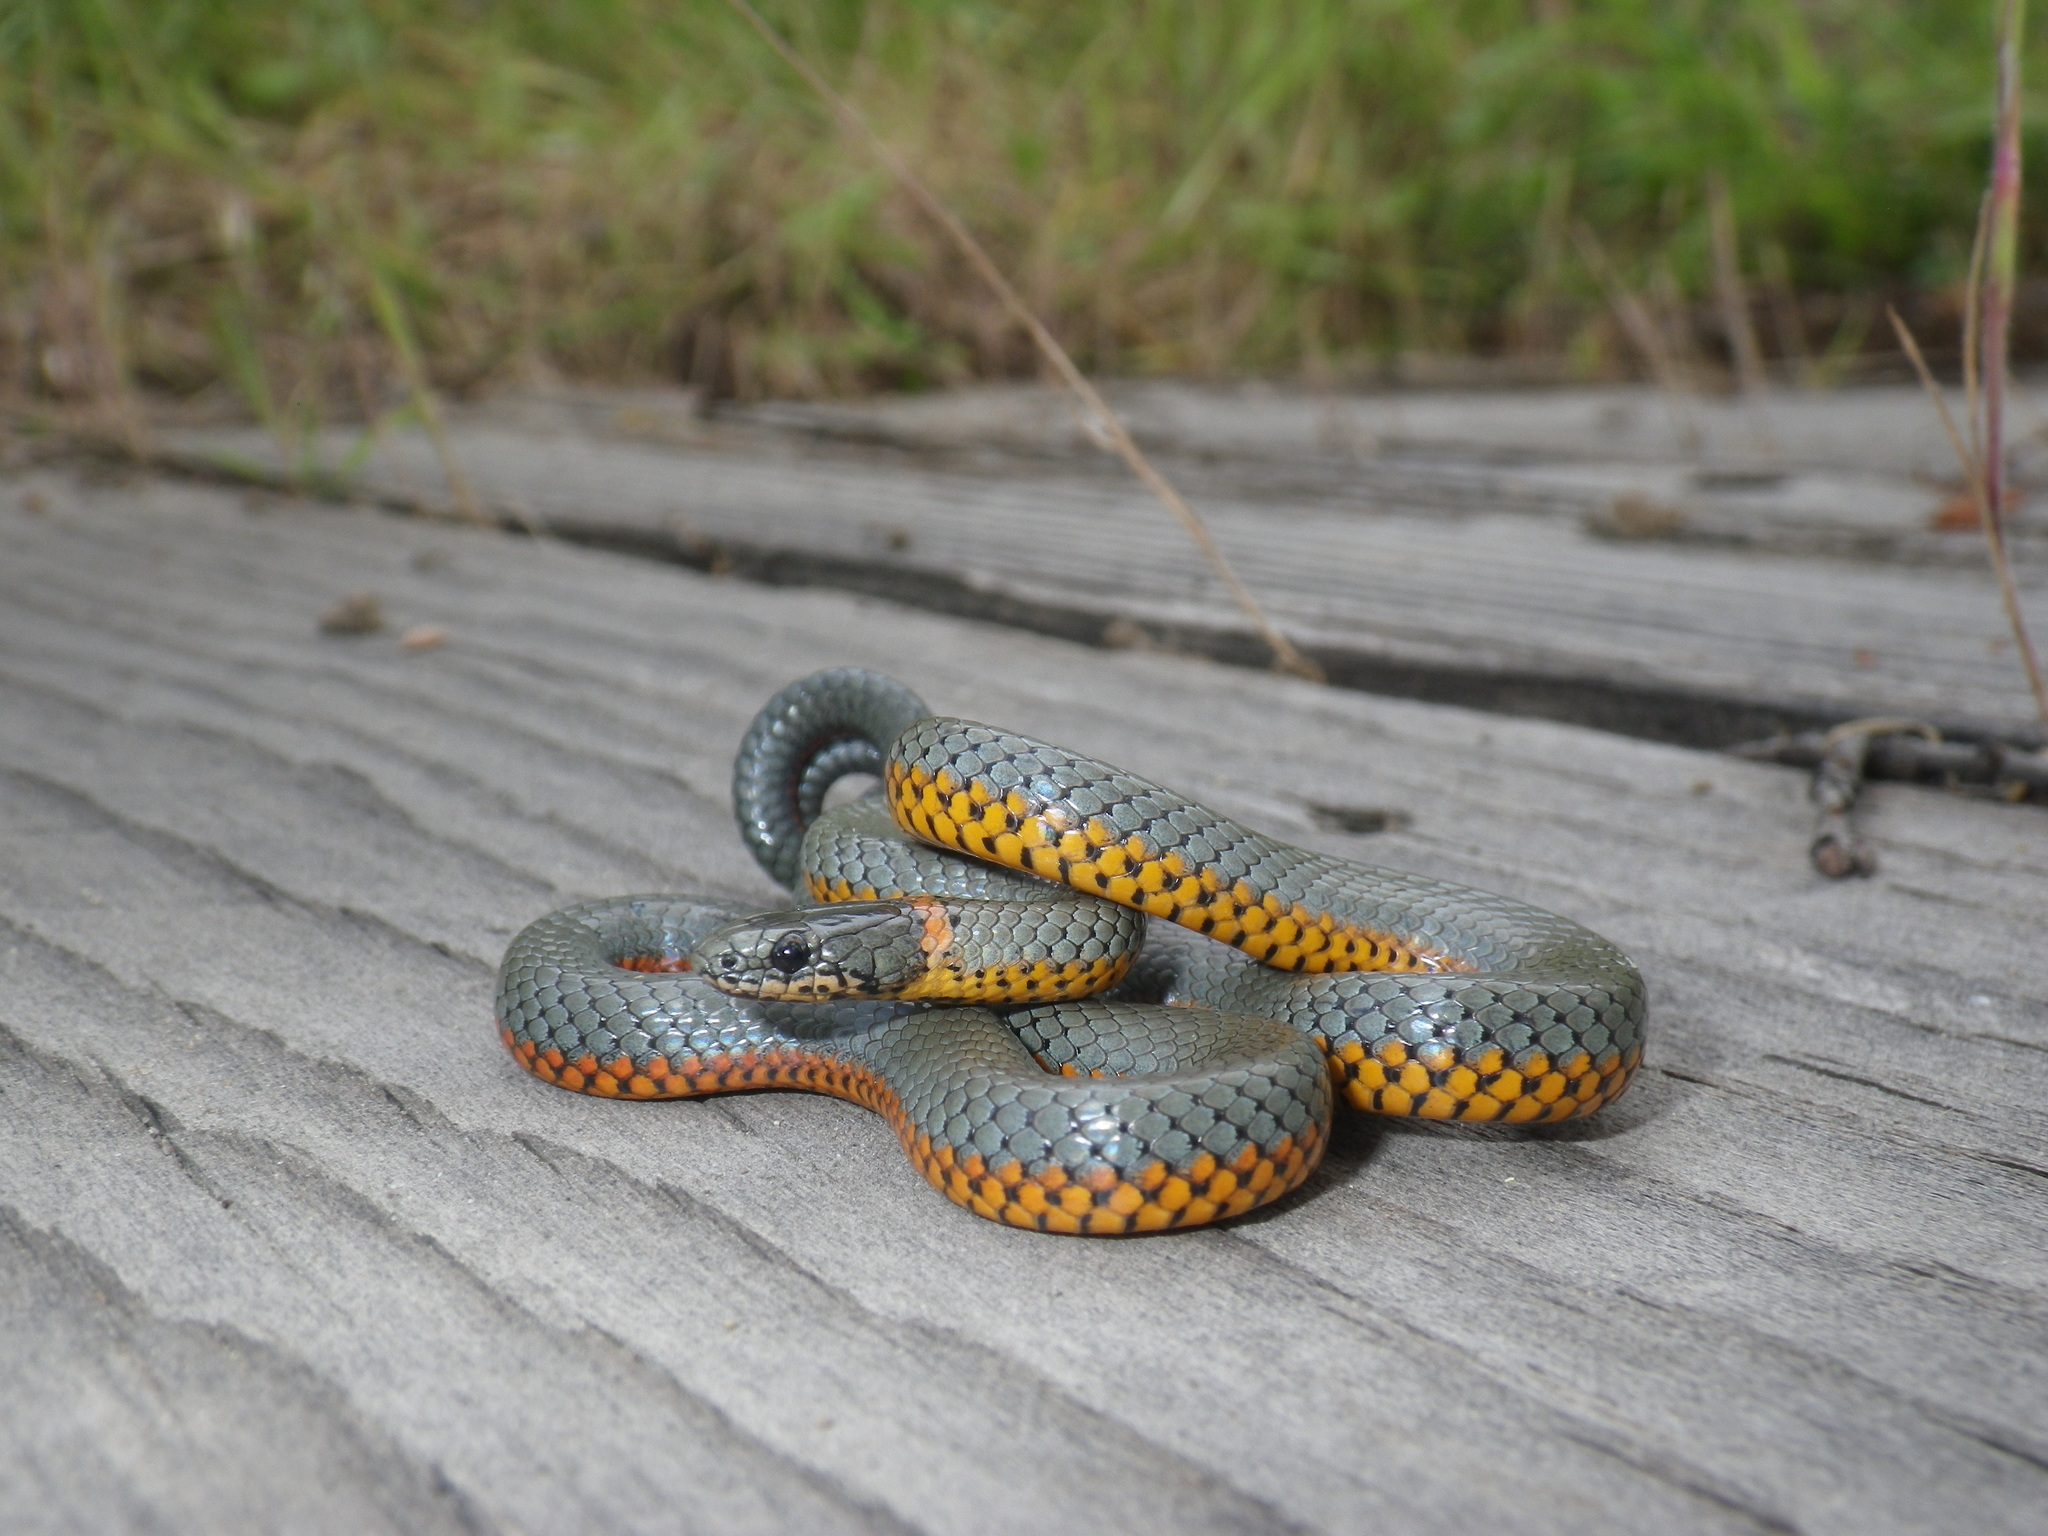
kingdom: Animalia
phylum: Chordata
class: Squamata
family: Colubridae
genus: Diadophis
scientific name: Diadophis punctatus
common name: Ringneck snake
